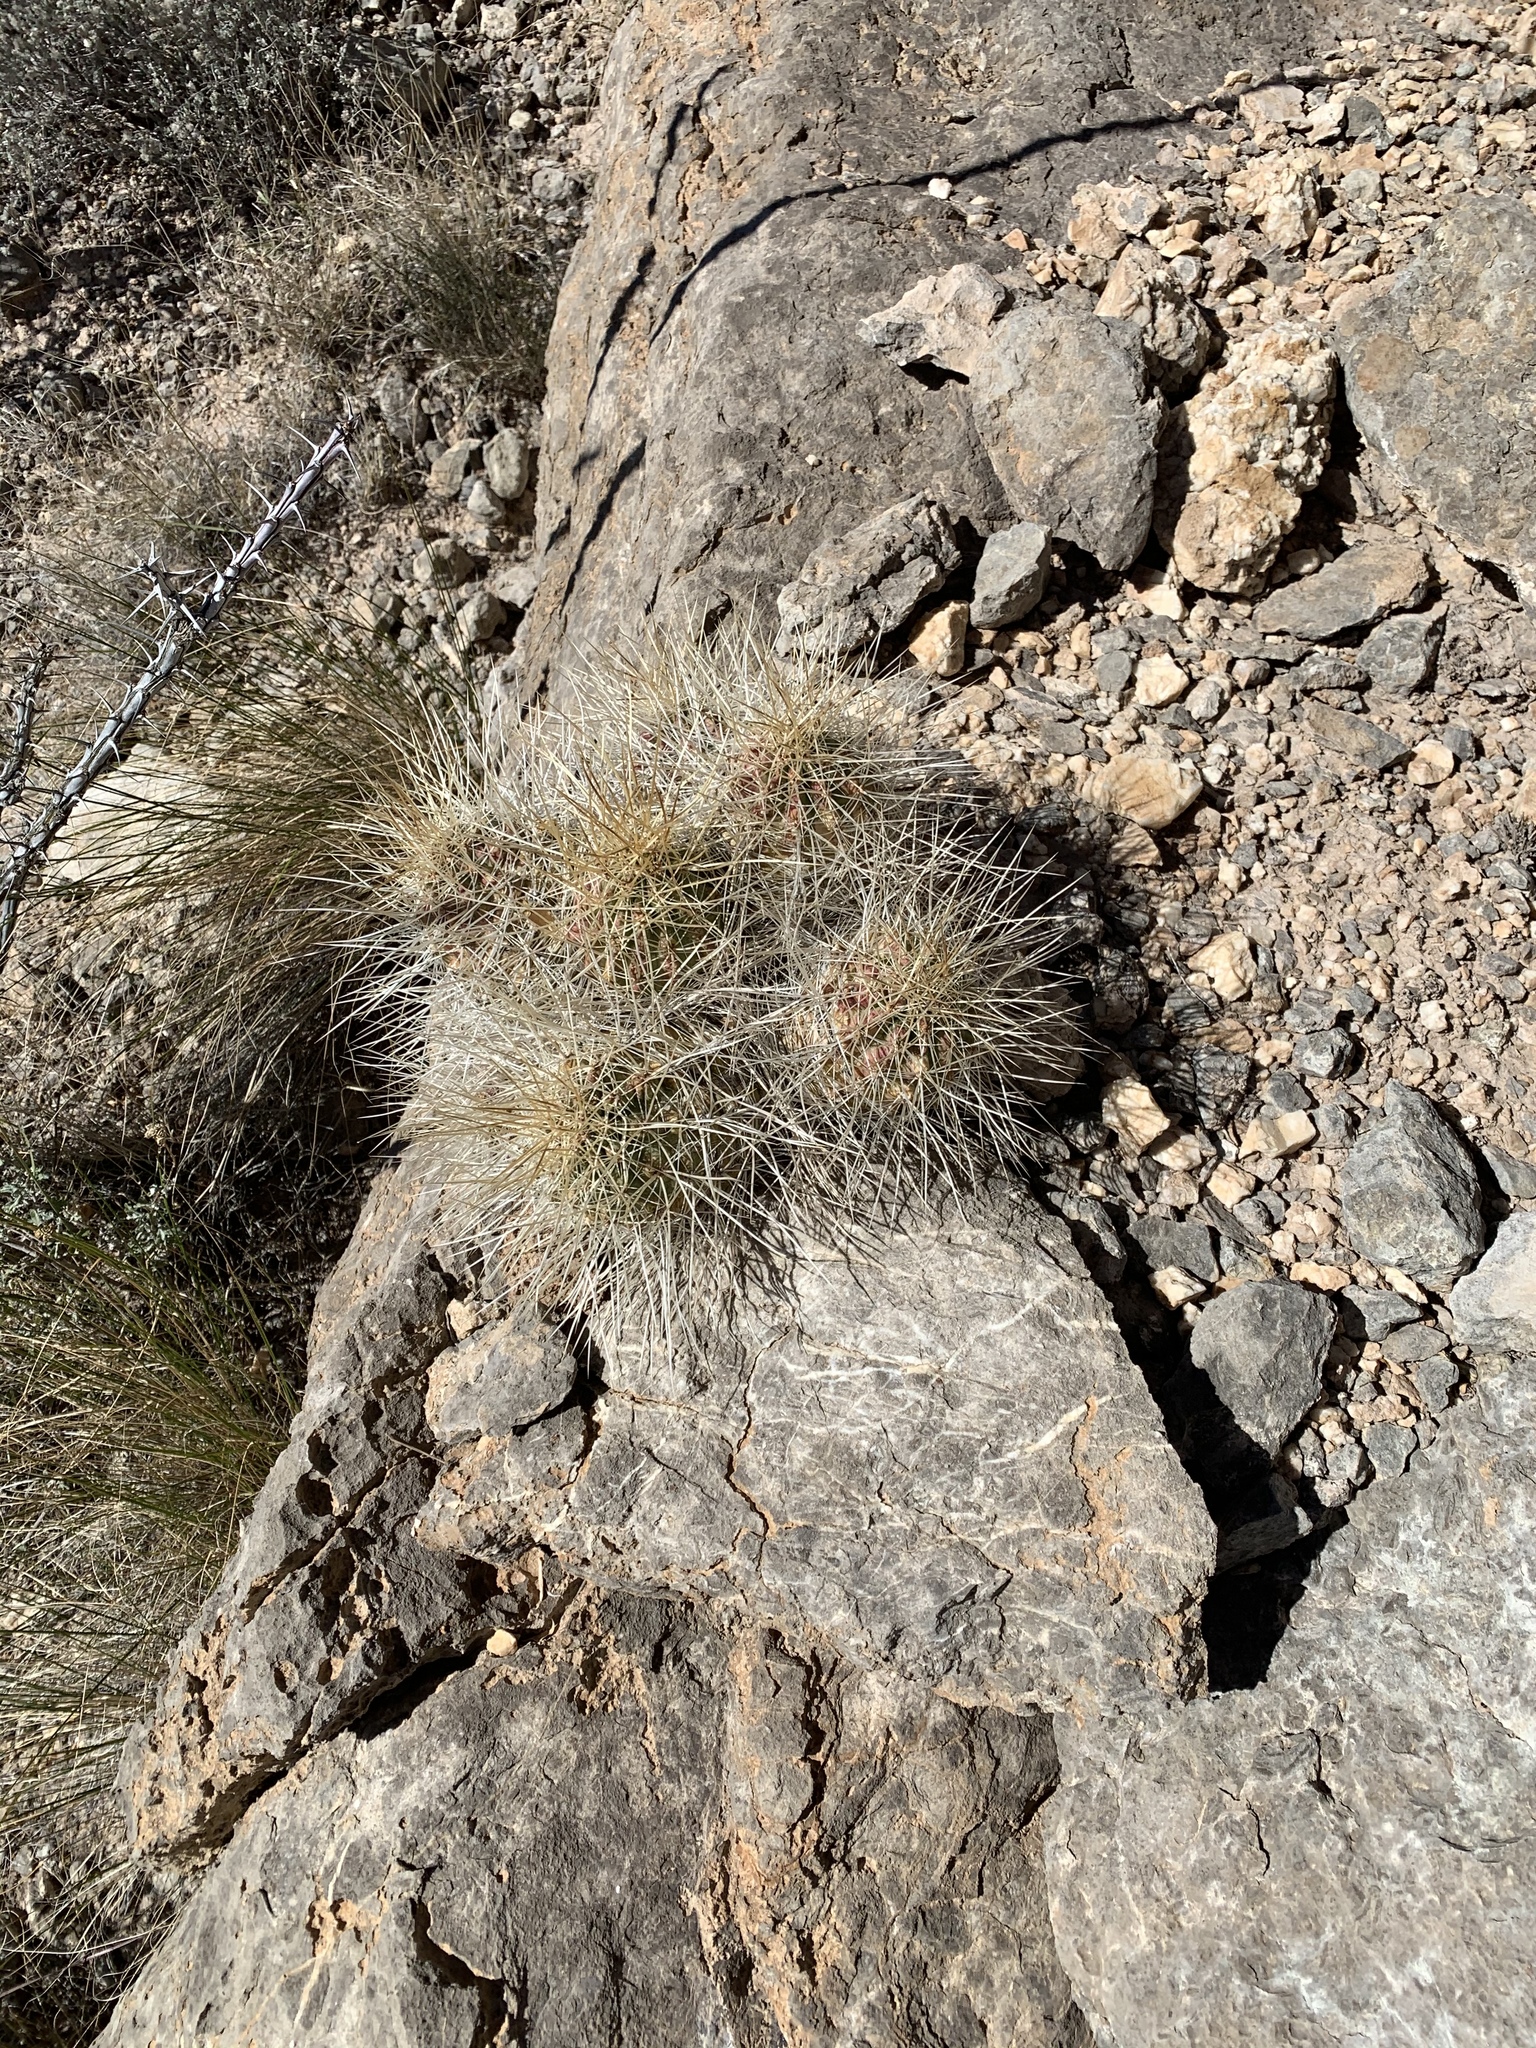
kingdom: Plantae
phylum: Tracheophyta
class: Magnoliopsida
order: Caryophyllales
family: Cactaceae
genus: Echinocereus
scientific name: Echinocereus stramineus
